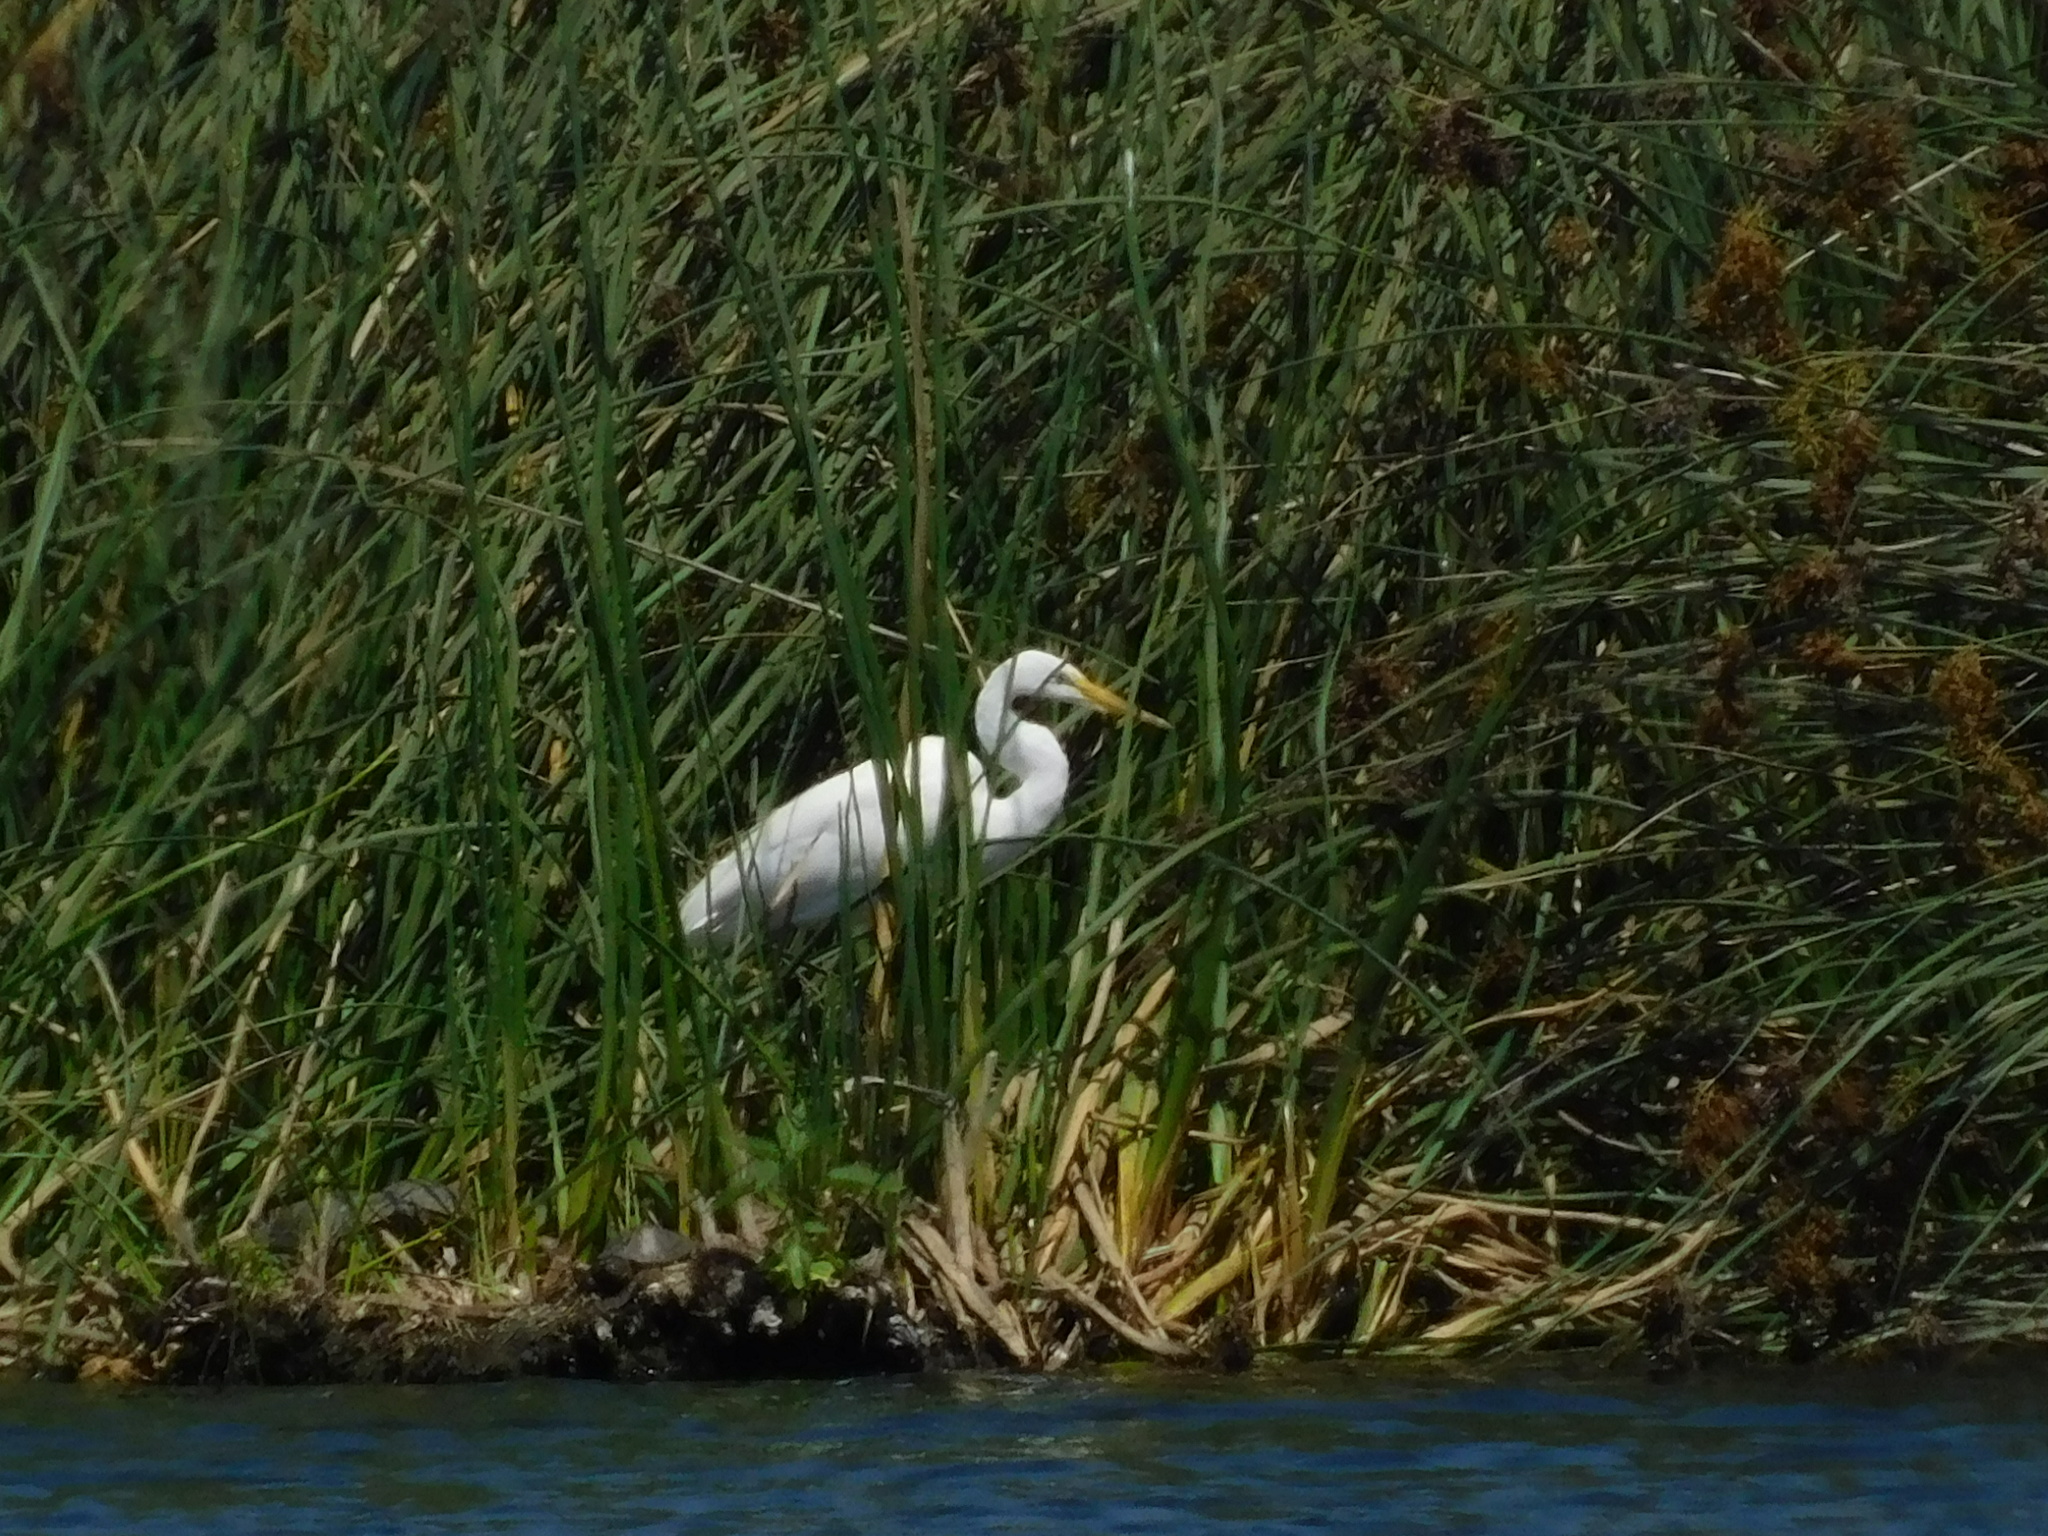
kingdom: Animalia
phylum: Chordata
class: Aves
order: Pelecaniformes
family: Ardeidae
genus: Ardea
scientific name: Ardea alba
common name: Great egret
